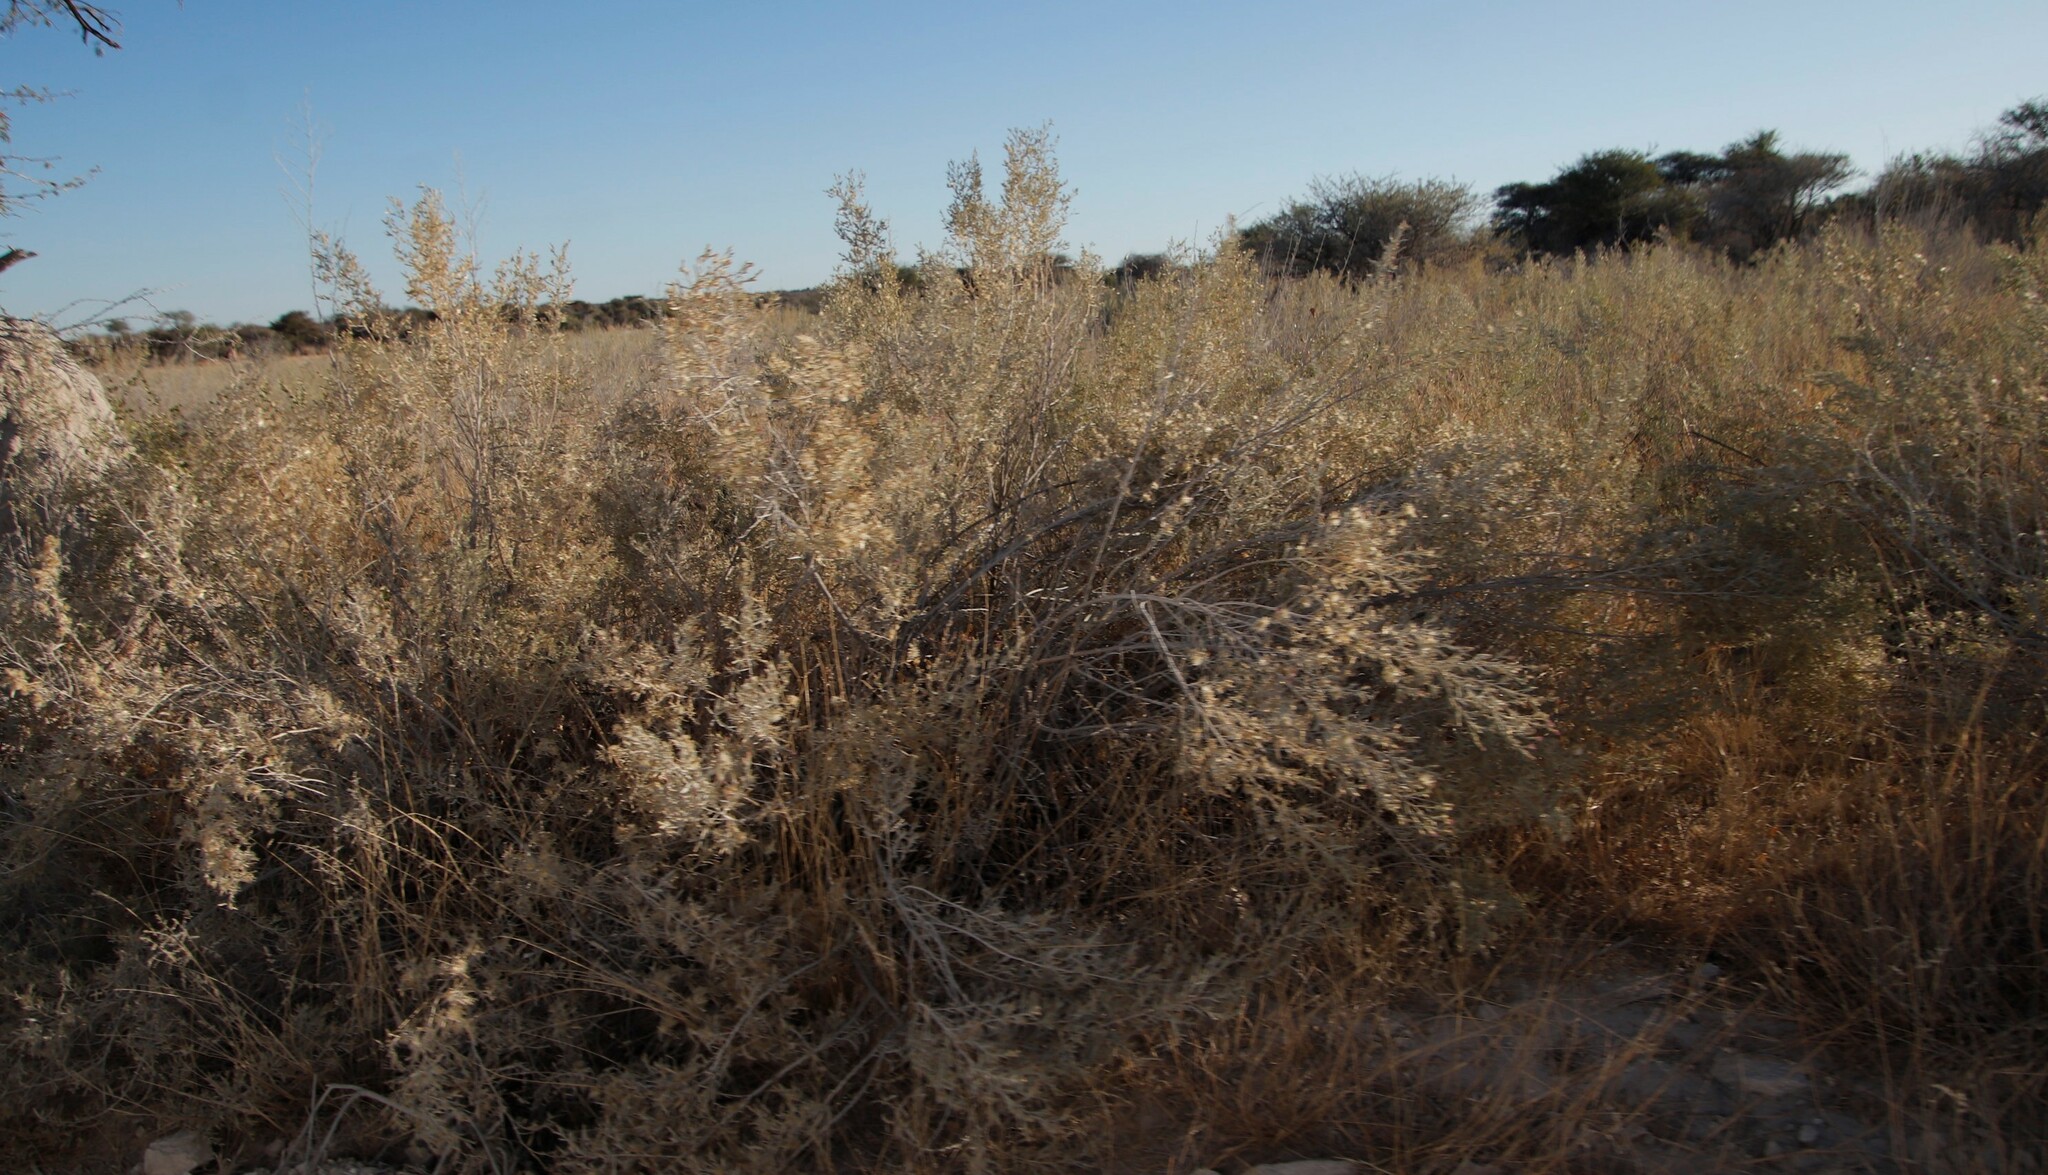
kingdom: Plantae
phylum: Tracheophyta
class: Magnoliopsida
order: Asterales
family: Asteraceae
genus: Pechuel-loeschea
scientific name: Pechuel-loeschea leubnitziae
